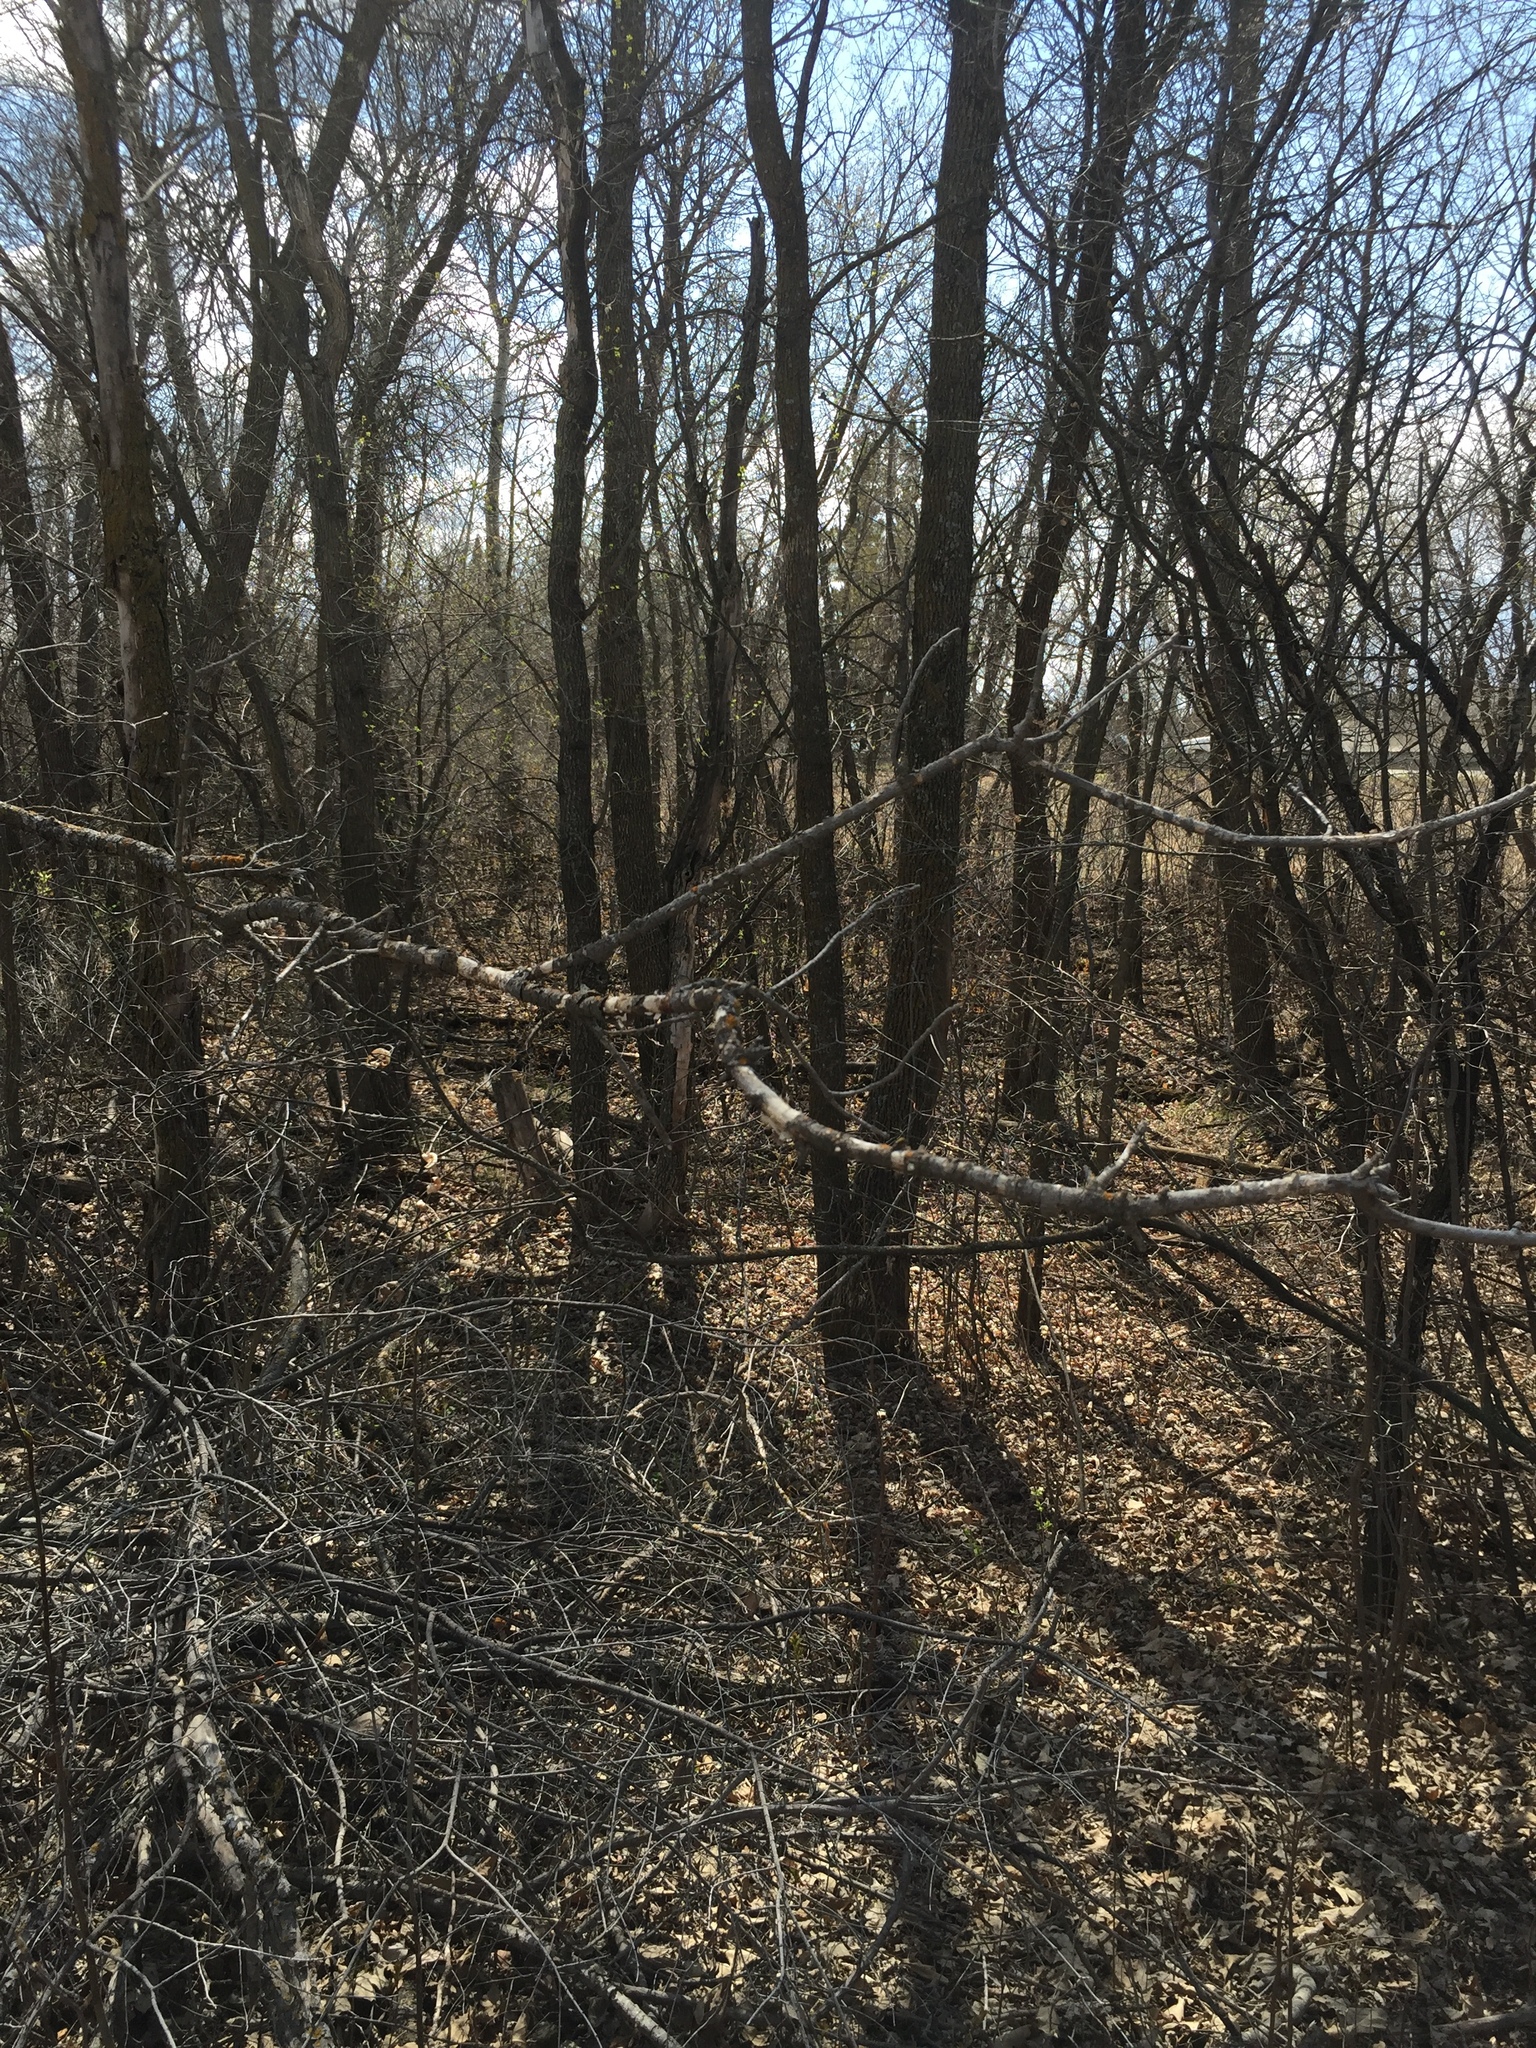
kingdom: Plantae
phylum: Tracheophyta
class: Magnoliopsida
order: Fagales
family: Fagaceae
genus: Quercus
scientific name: Quercus macrocarpa
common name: Bur oak
